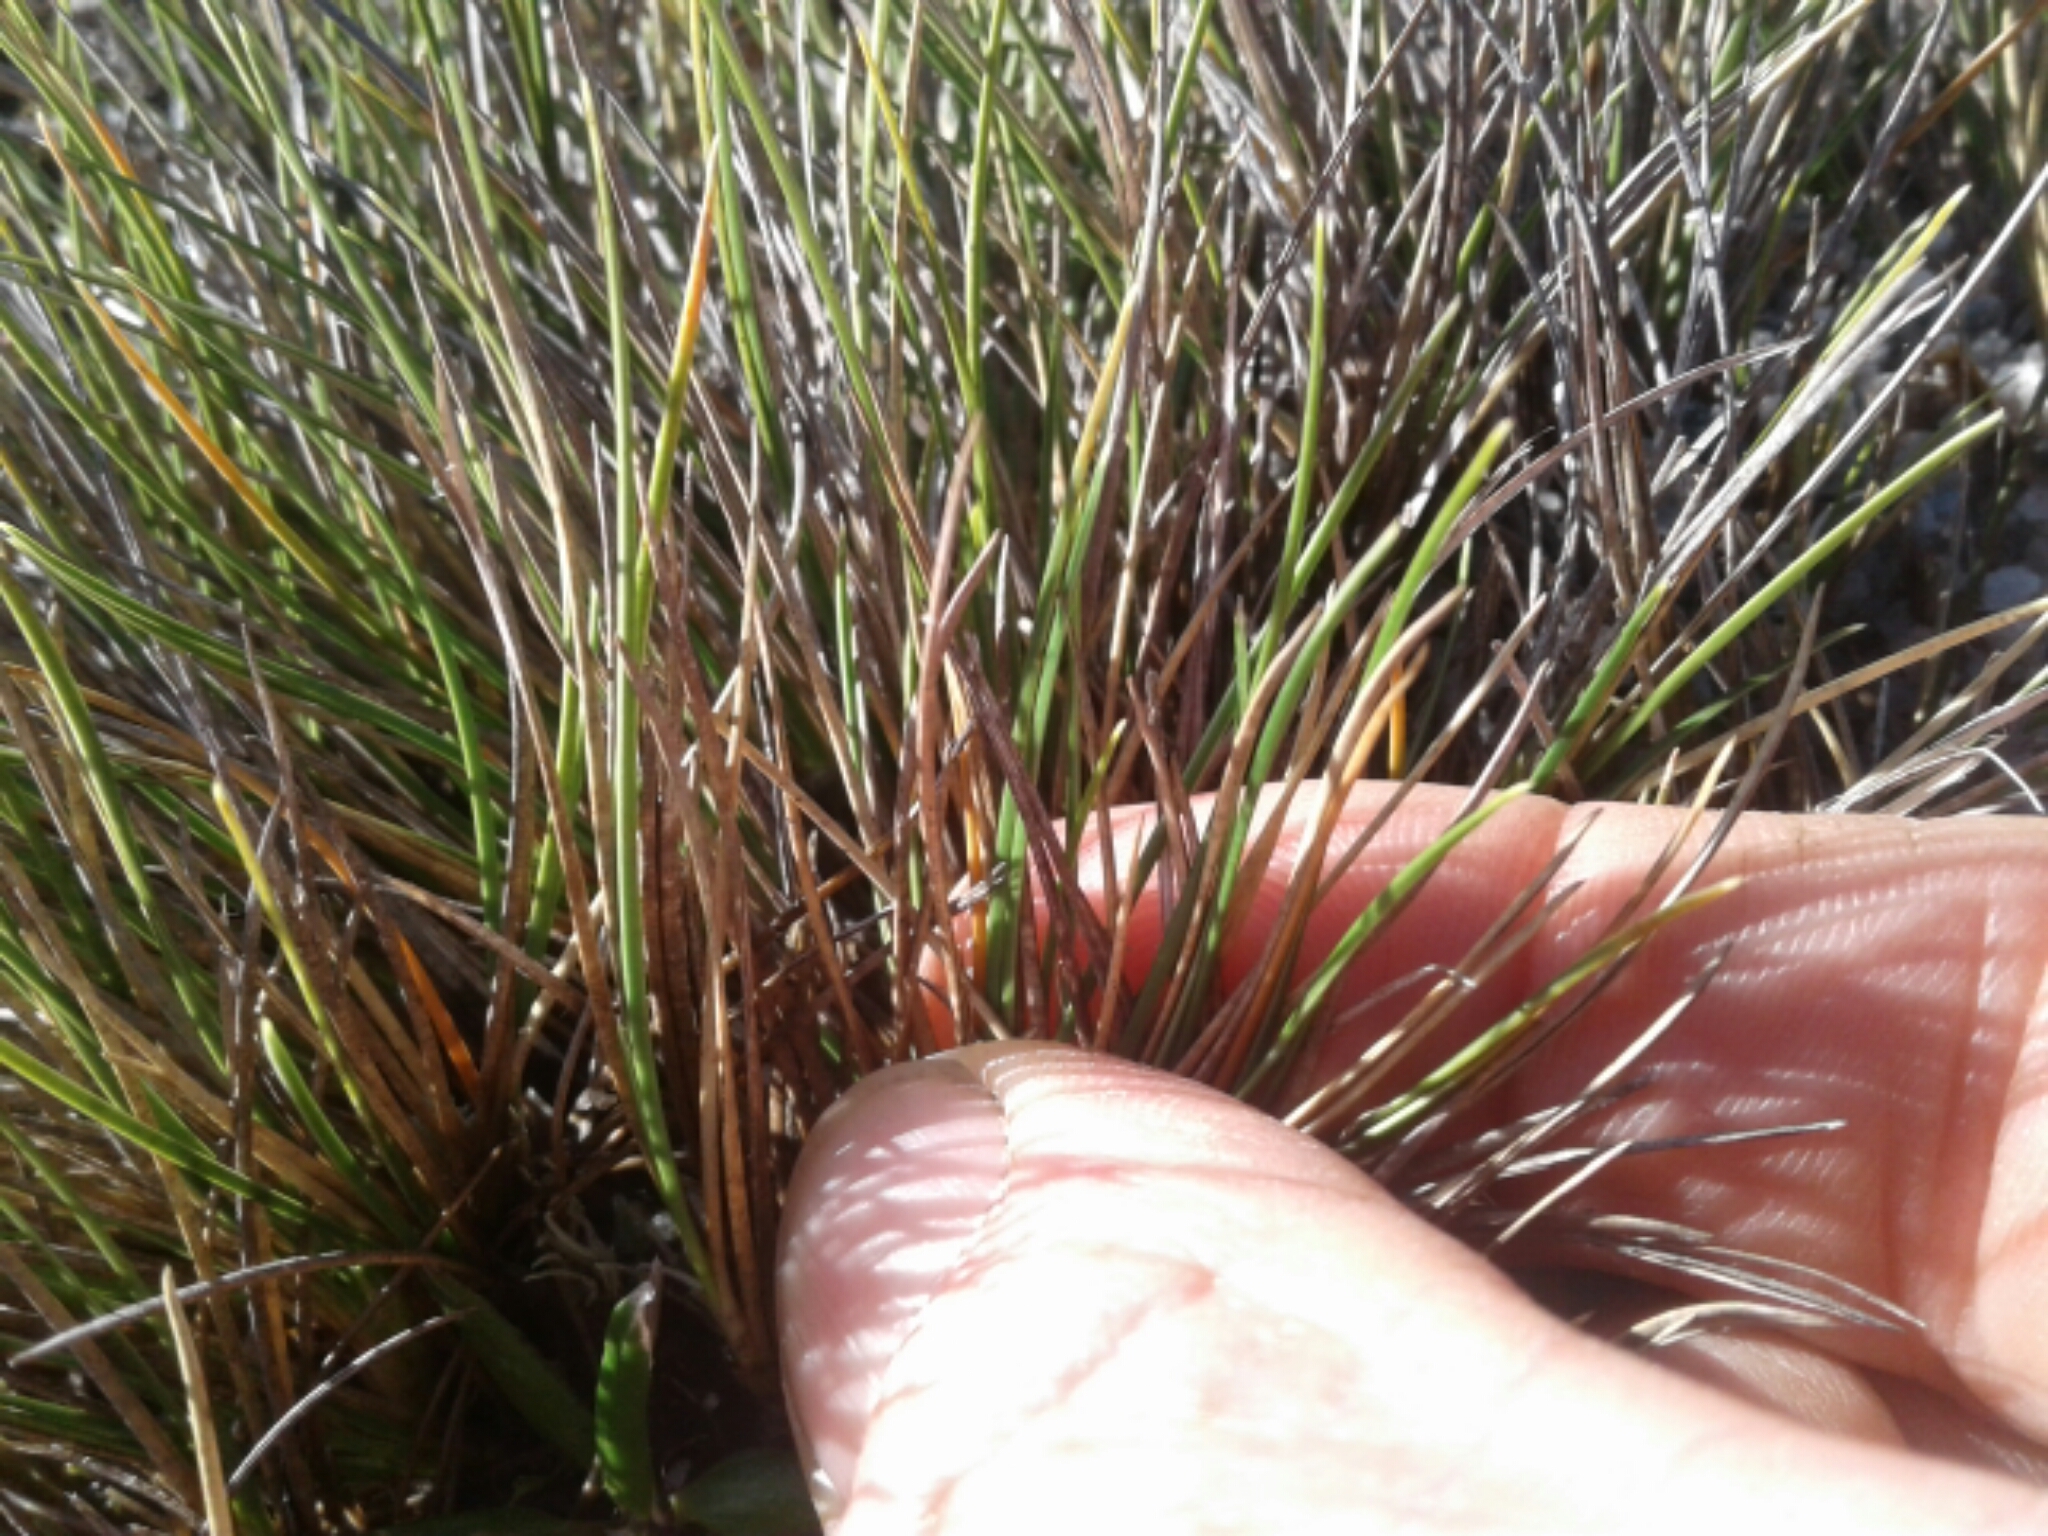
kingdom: Plantae
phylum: Tracheophyta
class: Liliopsida
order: Poales
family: Poaceae
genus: Chionochloa
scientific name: Chionochloa australis
